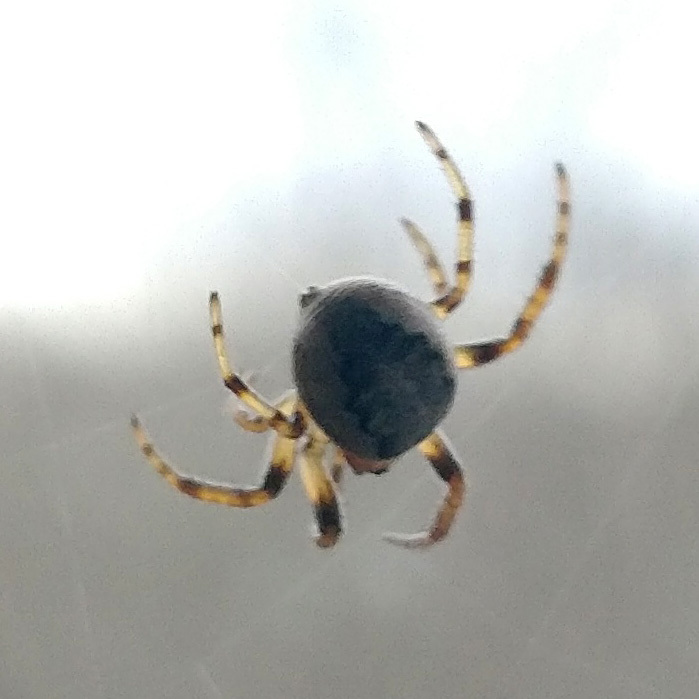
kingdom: Animalia
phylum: Arthropoda
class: Arachnida
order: Araneae
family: Araneidae
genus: Larinioides
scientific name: Larinioides cornutus
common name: Furrow orbweaver
